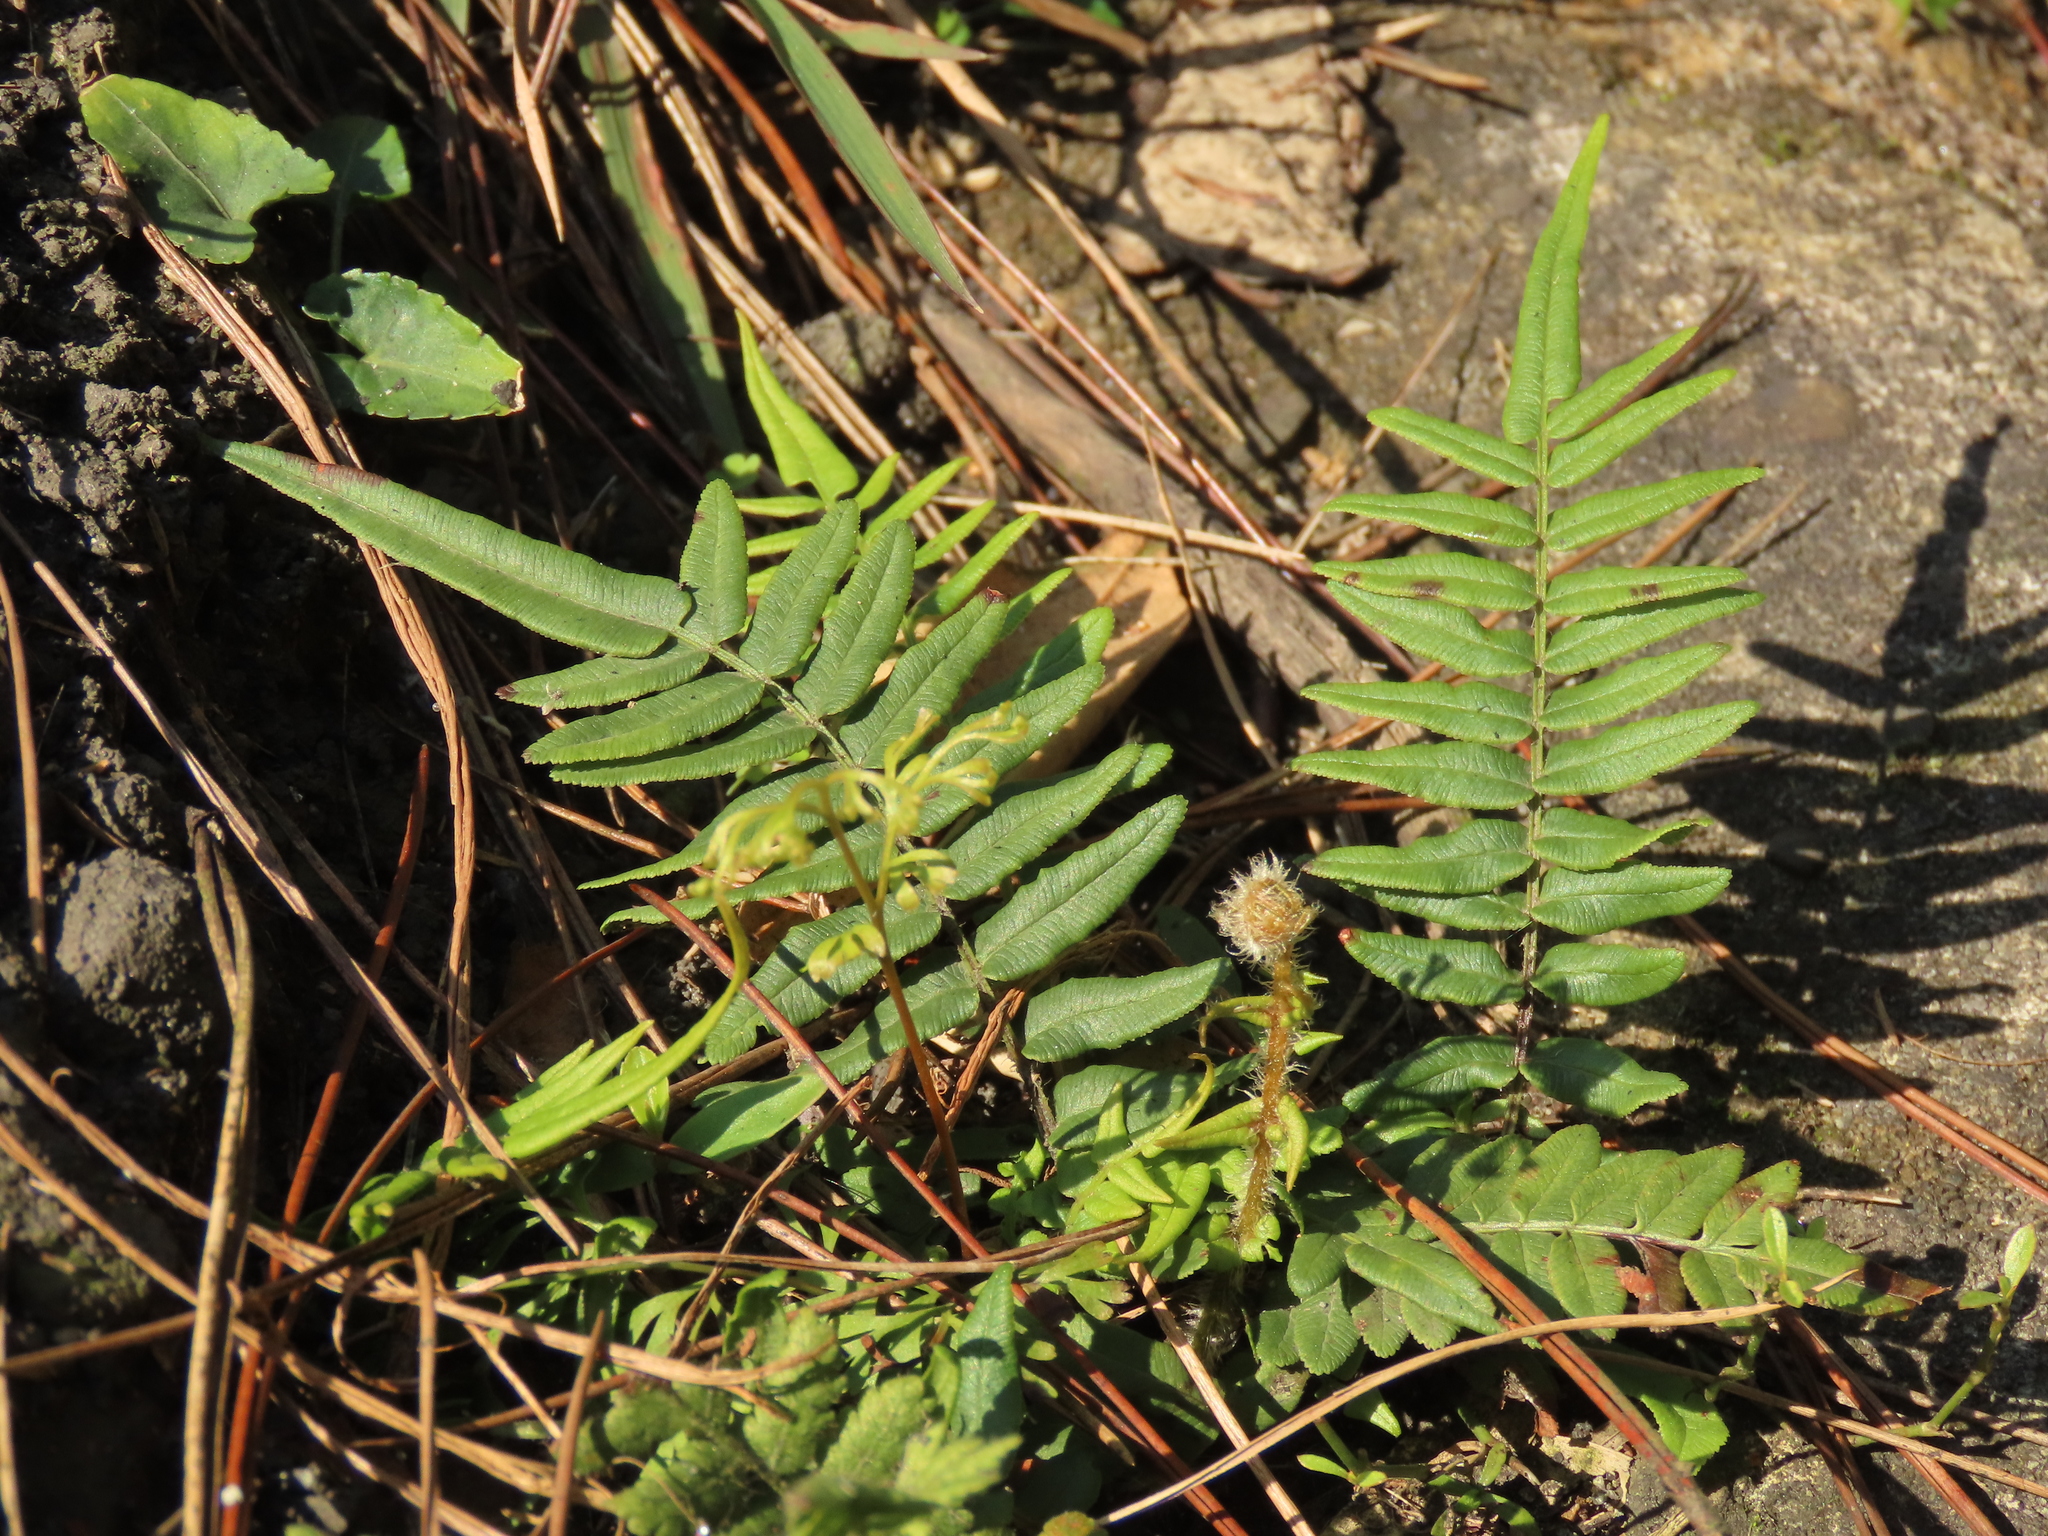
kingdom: Plantae
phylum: Tracheophyta
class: Polypodiopsida
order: Polypodiales
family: Pteridaceae
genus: Pteris
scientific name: Pteris vittata
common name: Ladder brake
